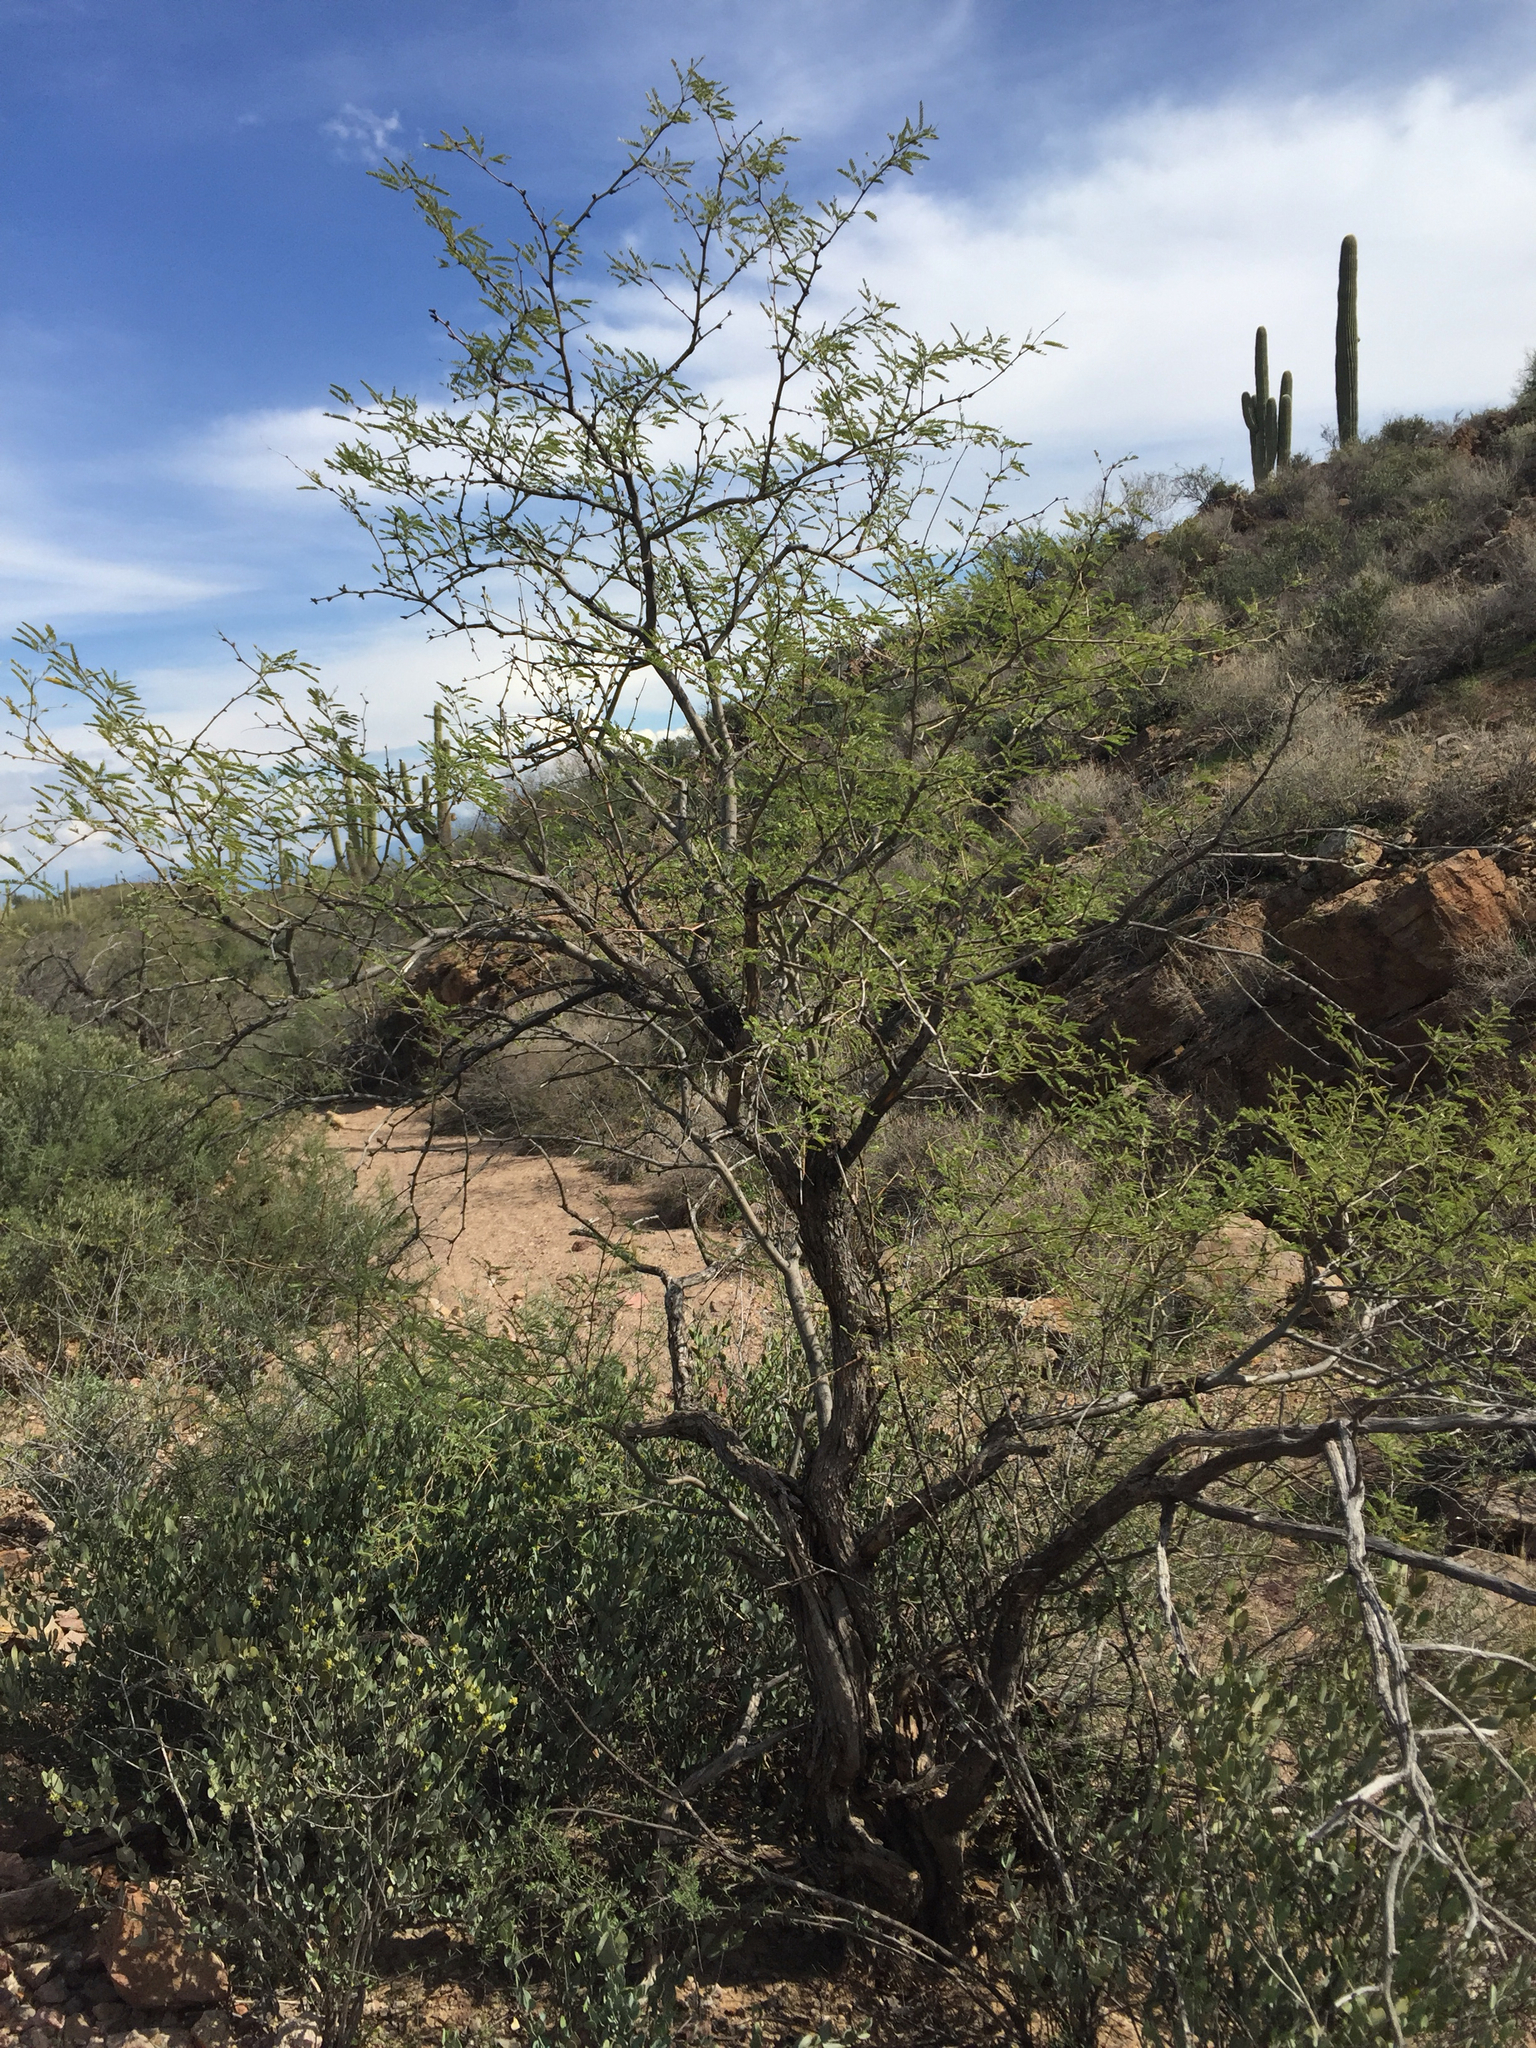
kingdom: Plantae
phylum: Tracheophyta
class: Magnoliopsida
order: Fabales
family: Fabaceae
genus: Prosopis
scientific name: Prosopis velutina
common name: Velvet mesquite
